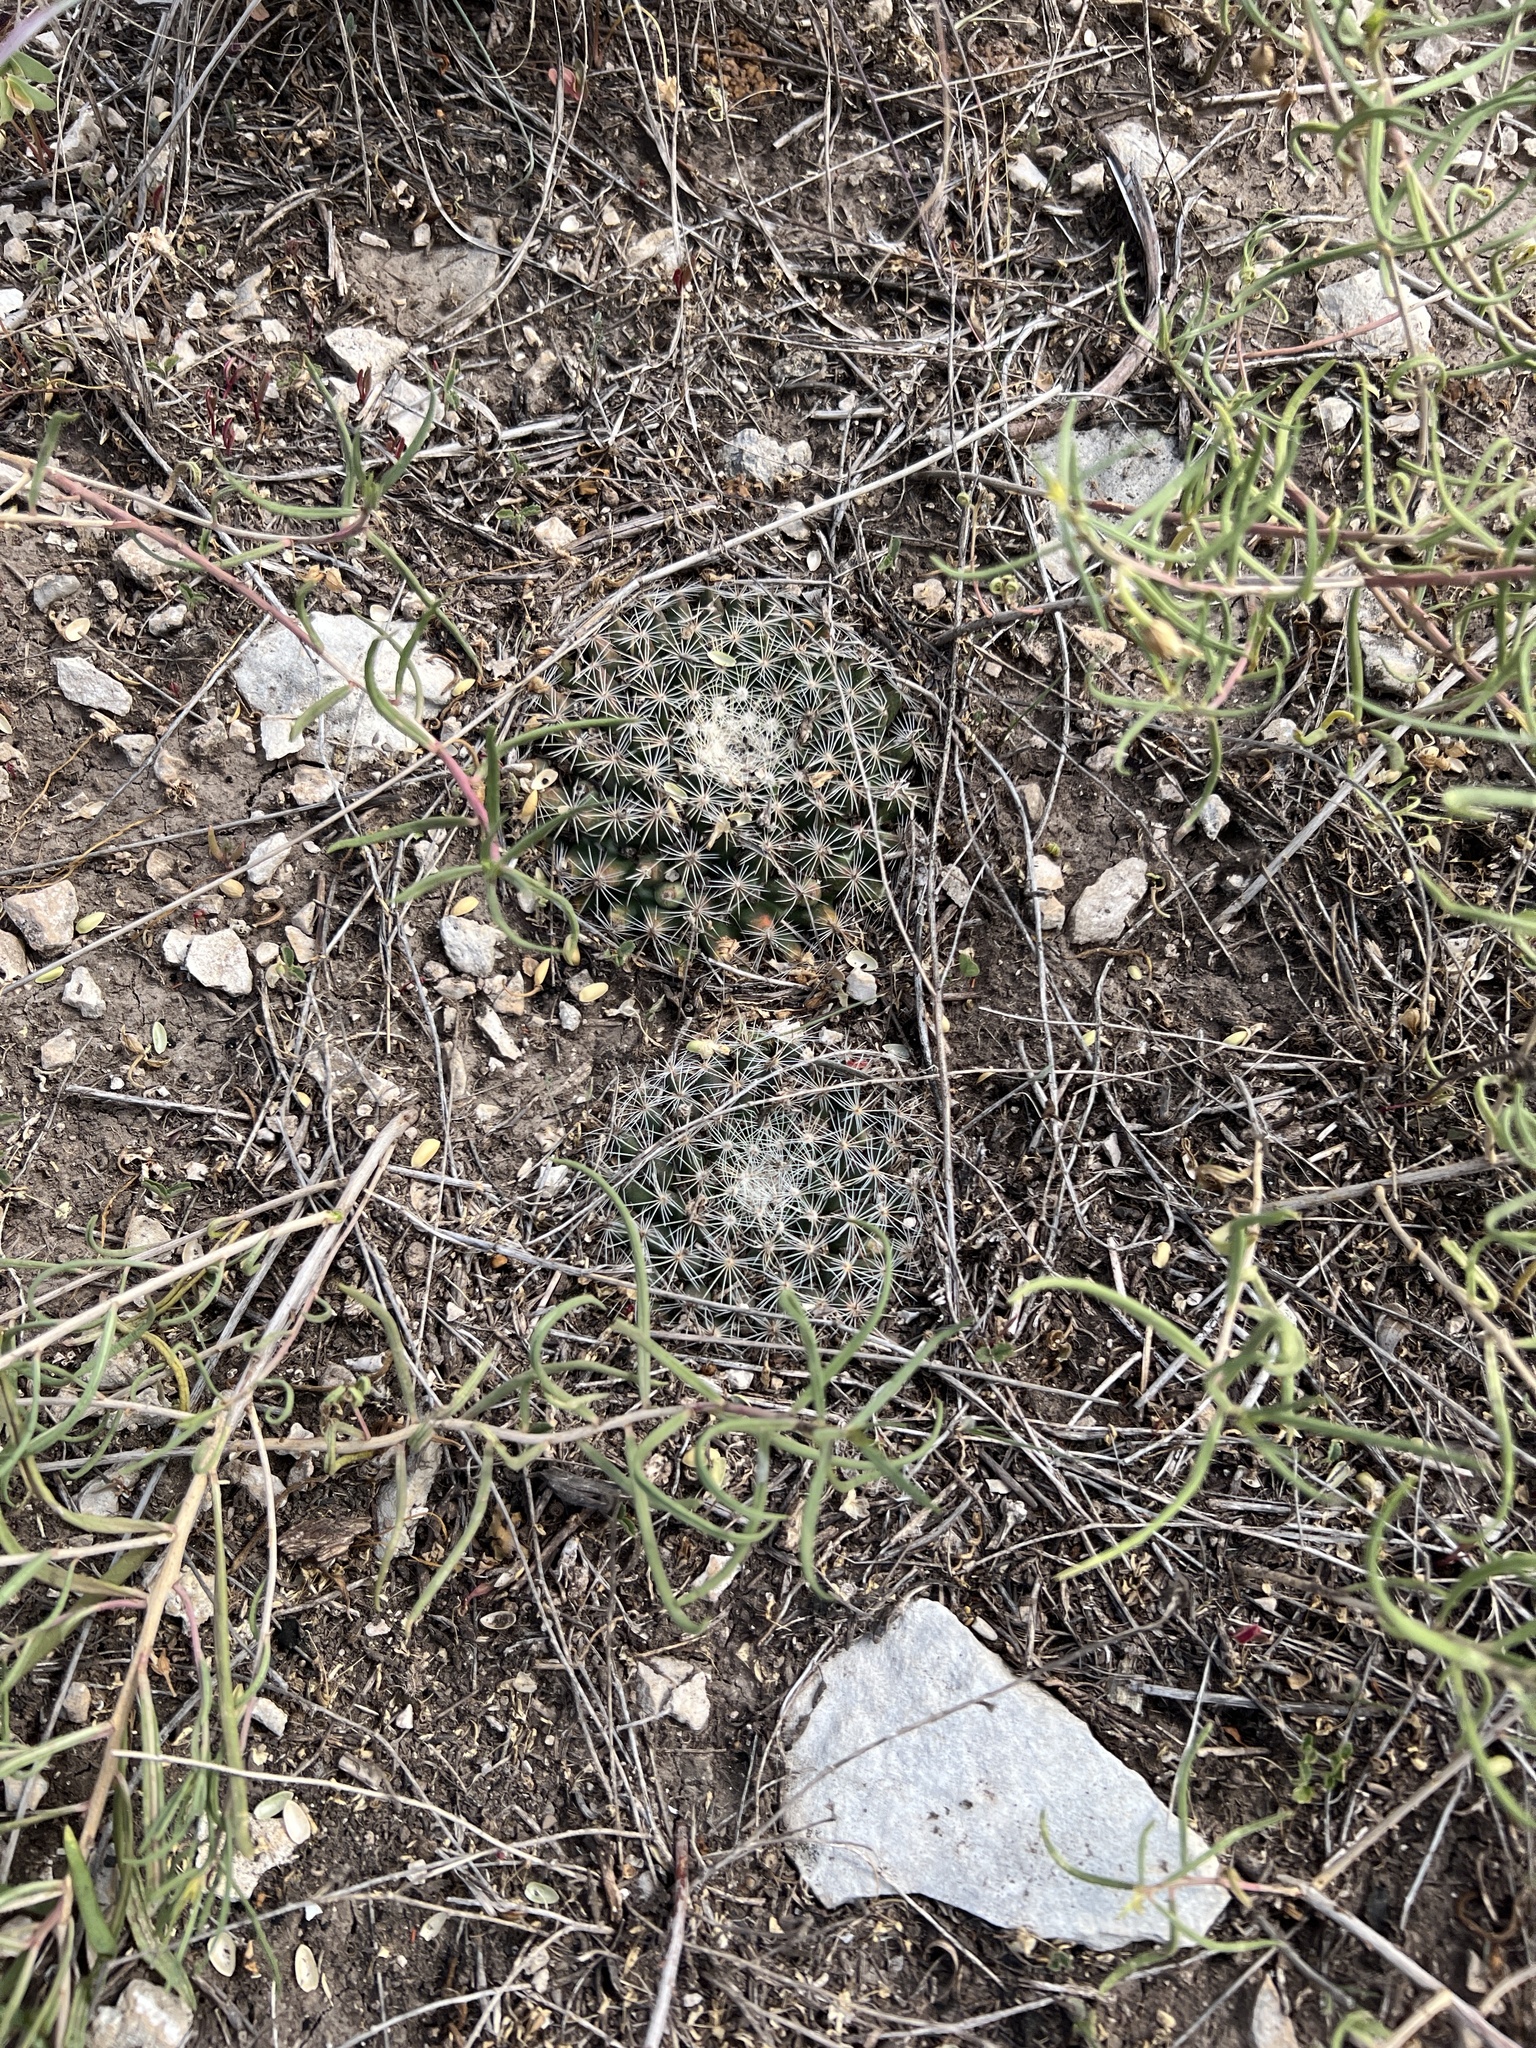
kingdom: Plantae
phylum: Tracheophyta
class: Magnoliopsida
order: Caryophyllales
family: Cactaceae
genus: Mammillaria
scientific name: Mammillaria heyderi
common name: Little nipple cactus
